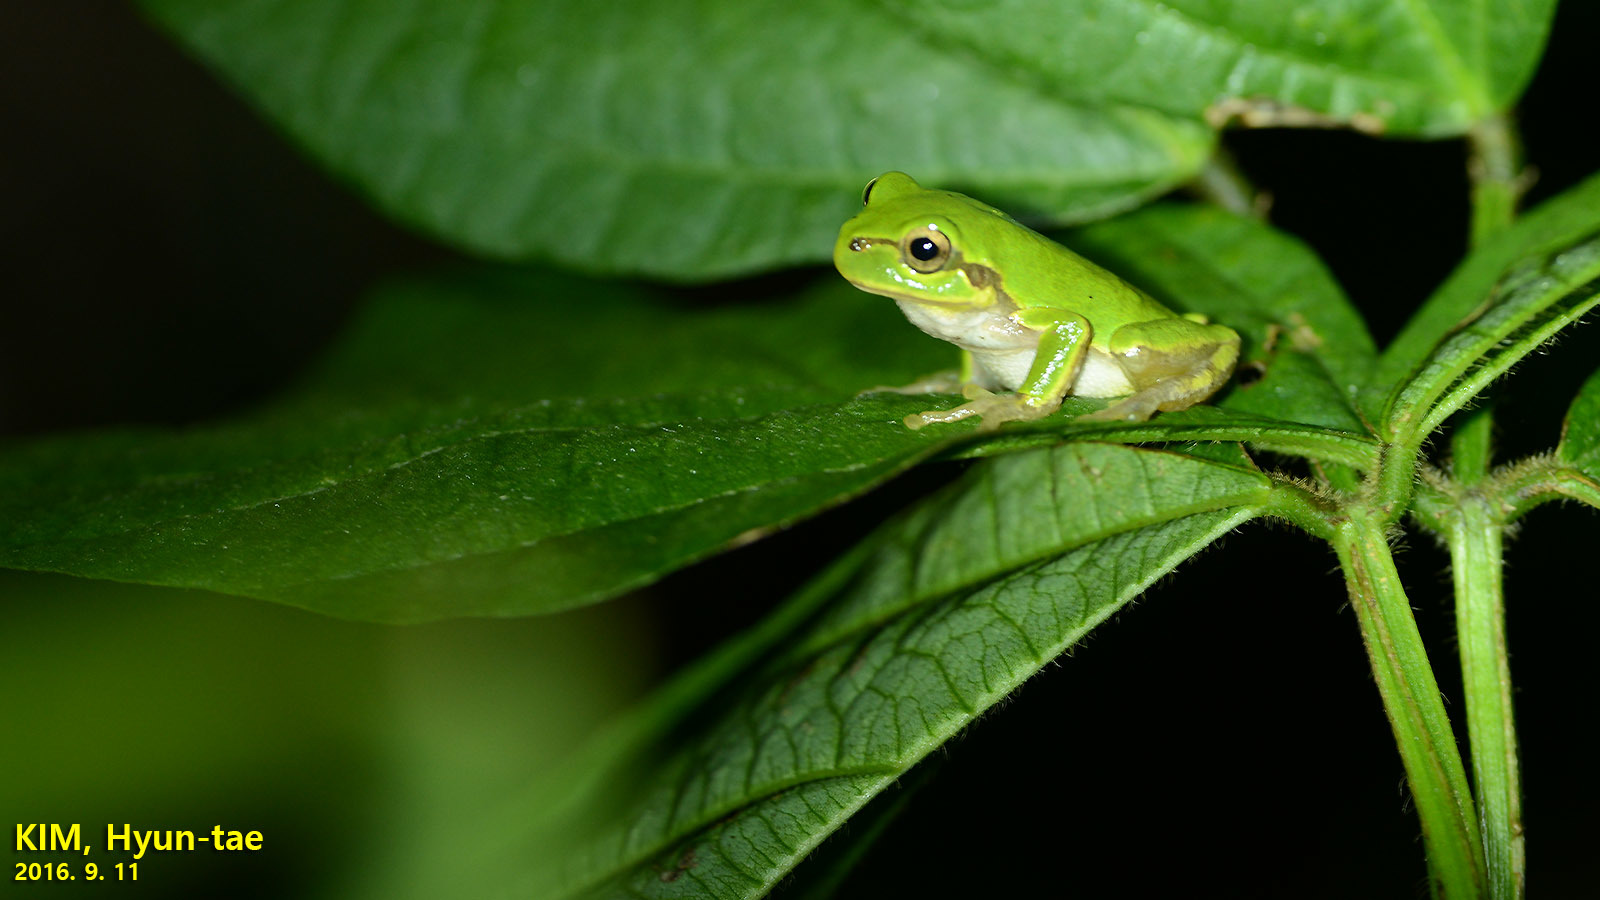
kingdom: Animalia
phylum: Chordata
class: Amphibia
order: Anura
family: Hylidae
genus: Dryophytes
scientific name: Dryophytes japonicus
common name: Japanese treefrog
